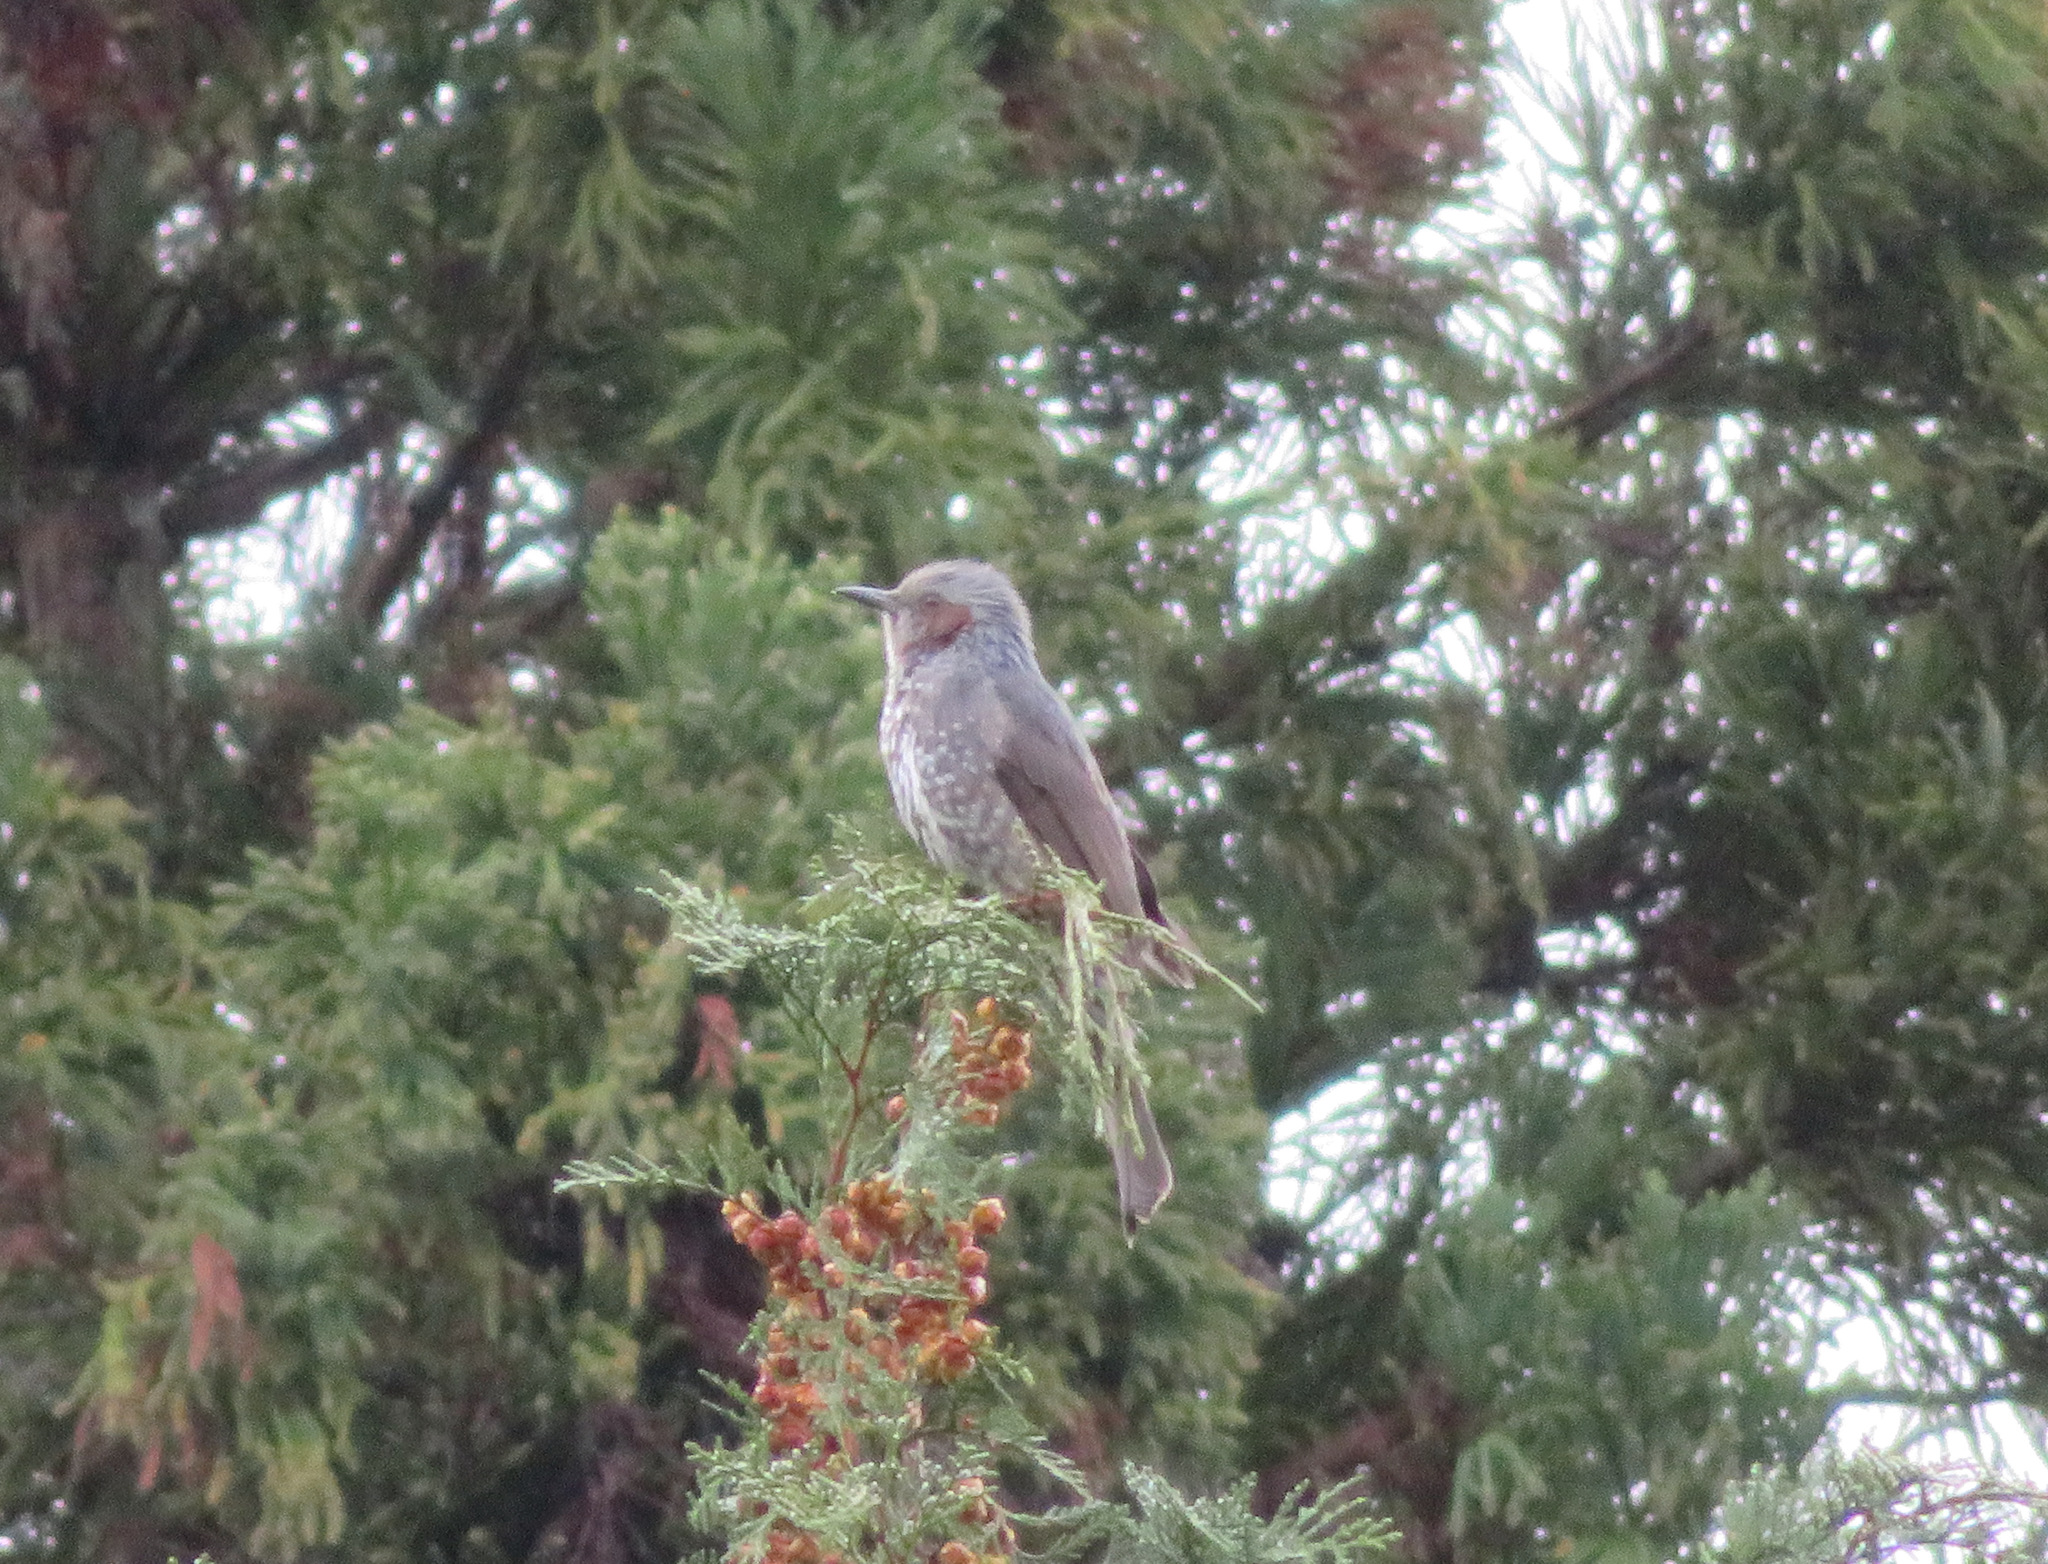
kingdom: Animalia
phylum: Chordata
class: Aves
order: Passeriformes
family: Pycnonotidae
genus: Hypsipetes
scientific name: Hypsipetes amaurotis
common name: Brown-eared bulbul
